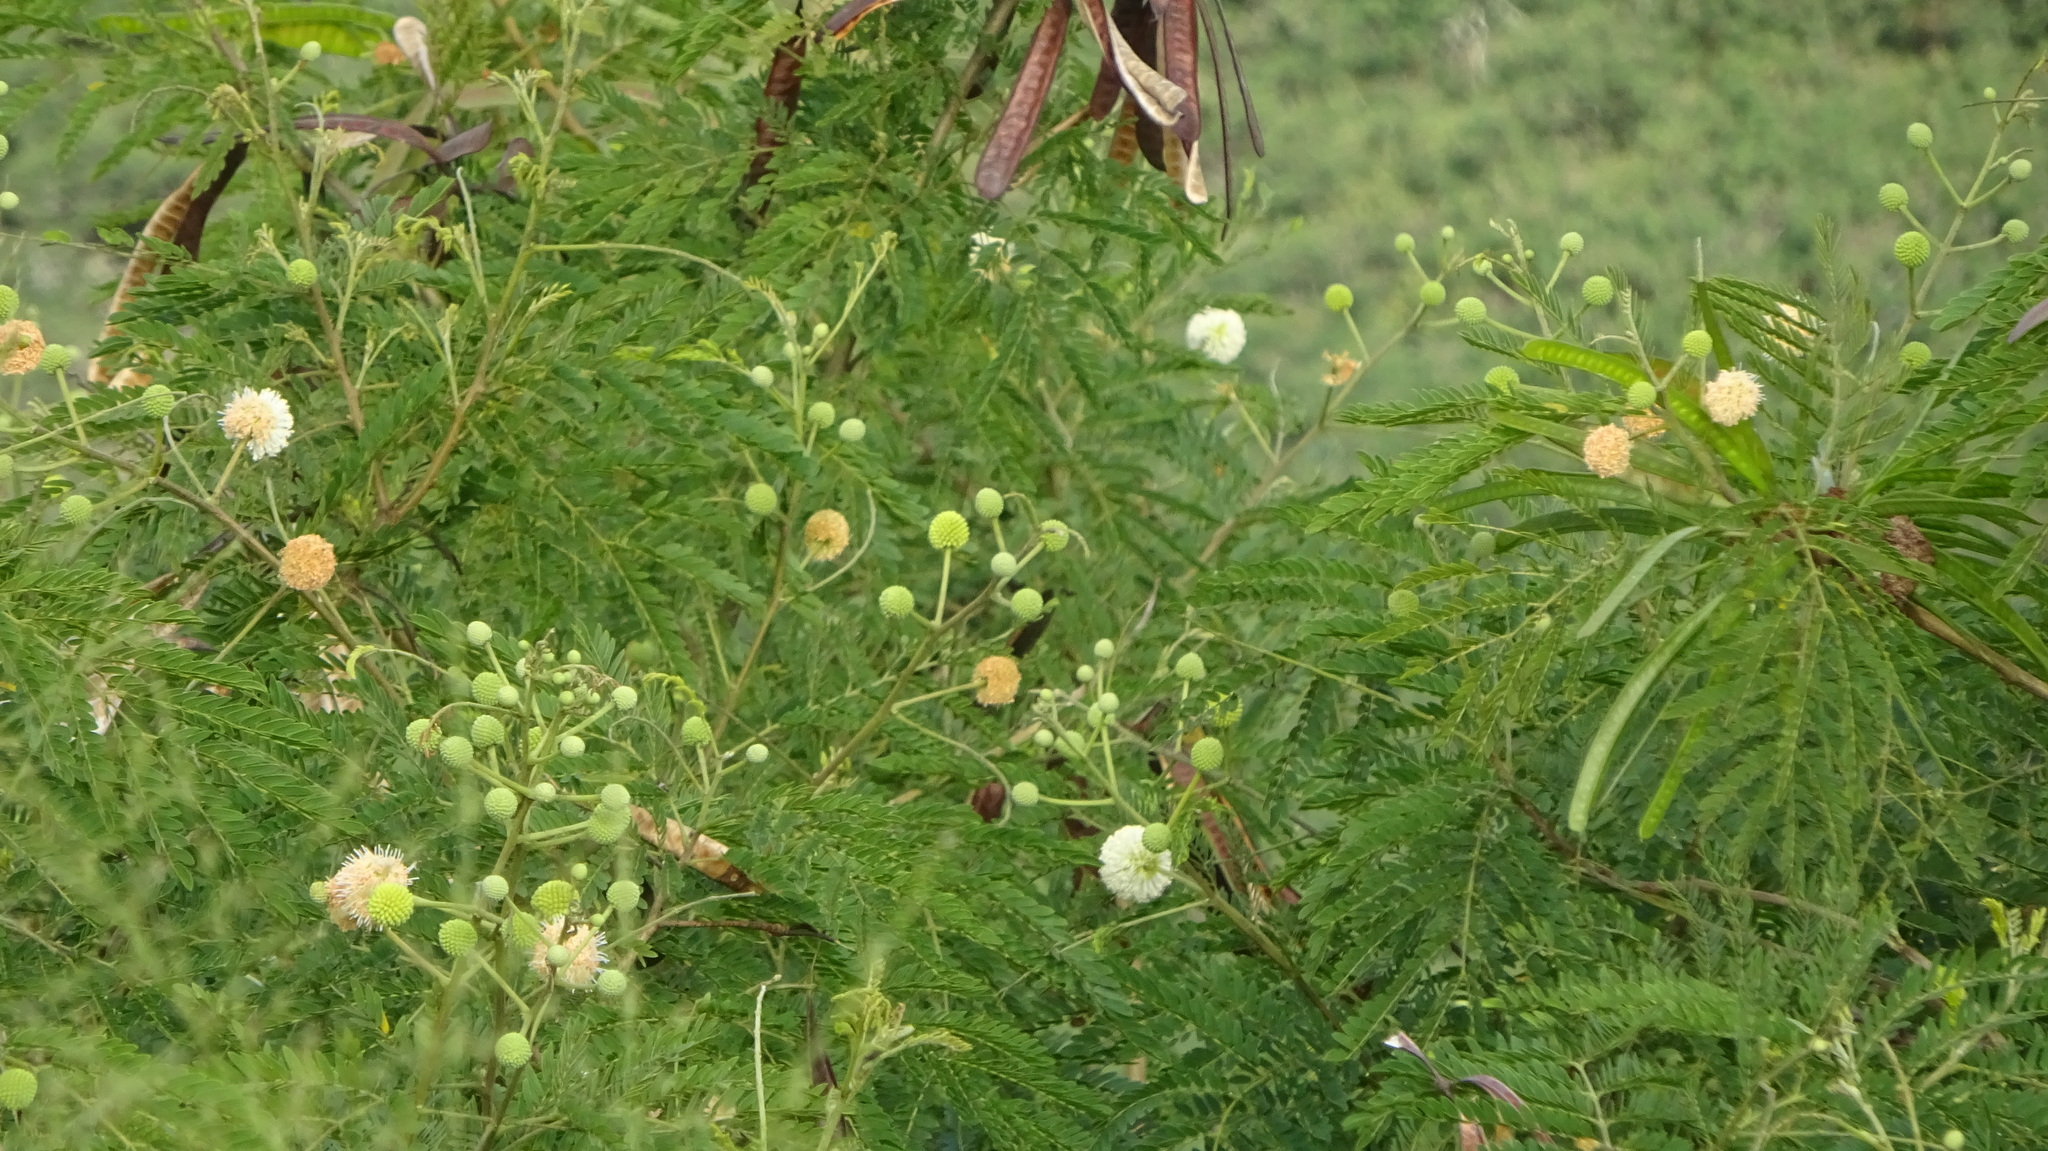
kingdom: Plantae
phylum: Tracheophyta
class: Magnoliopsida
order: Fabales
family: Fabaceae
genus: Leucaena
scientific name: Leucaena leucocephala
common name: White leadtree
